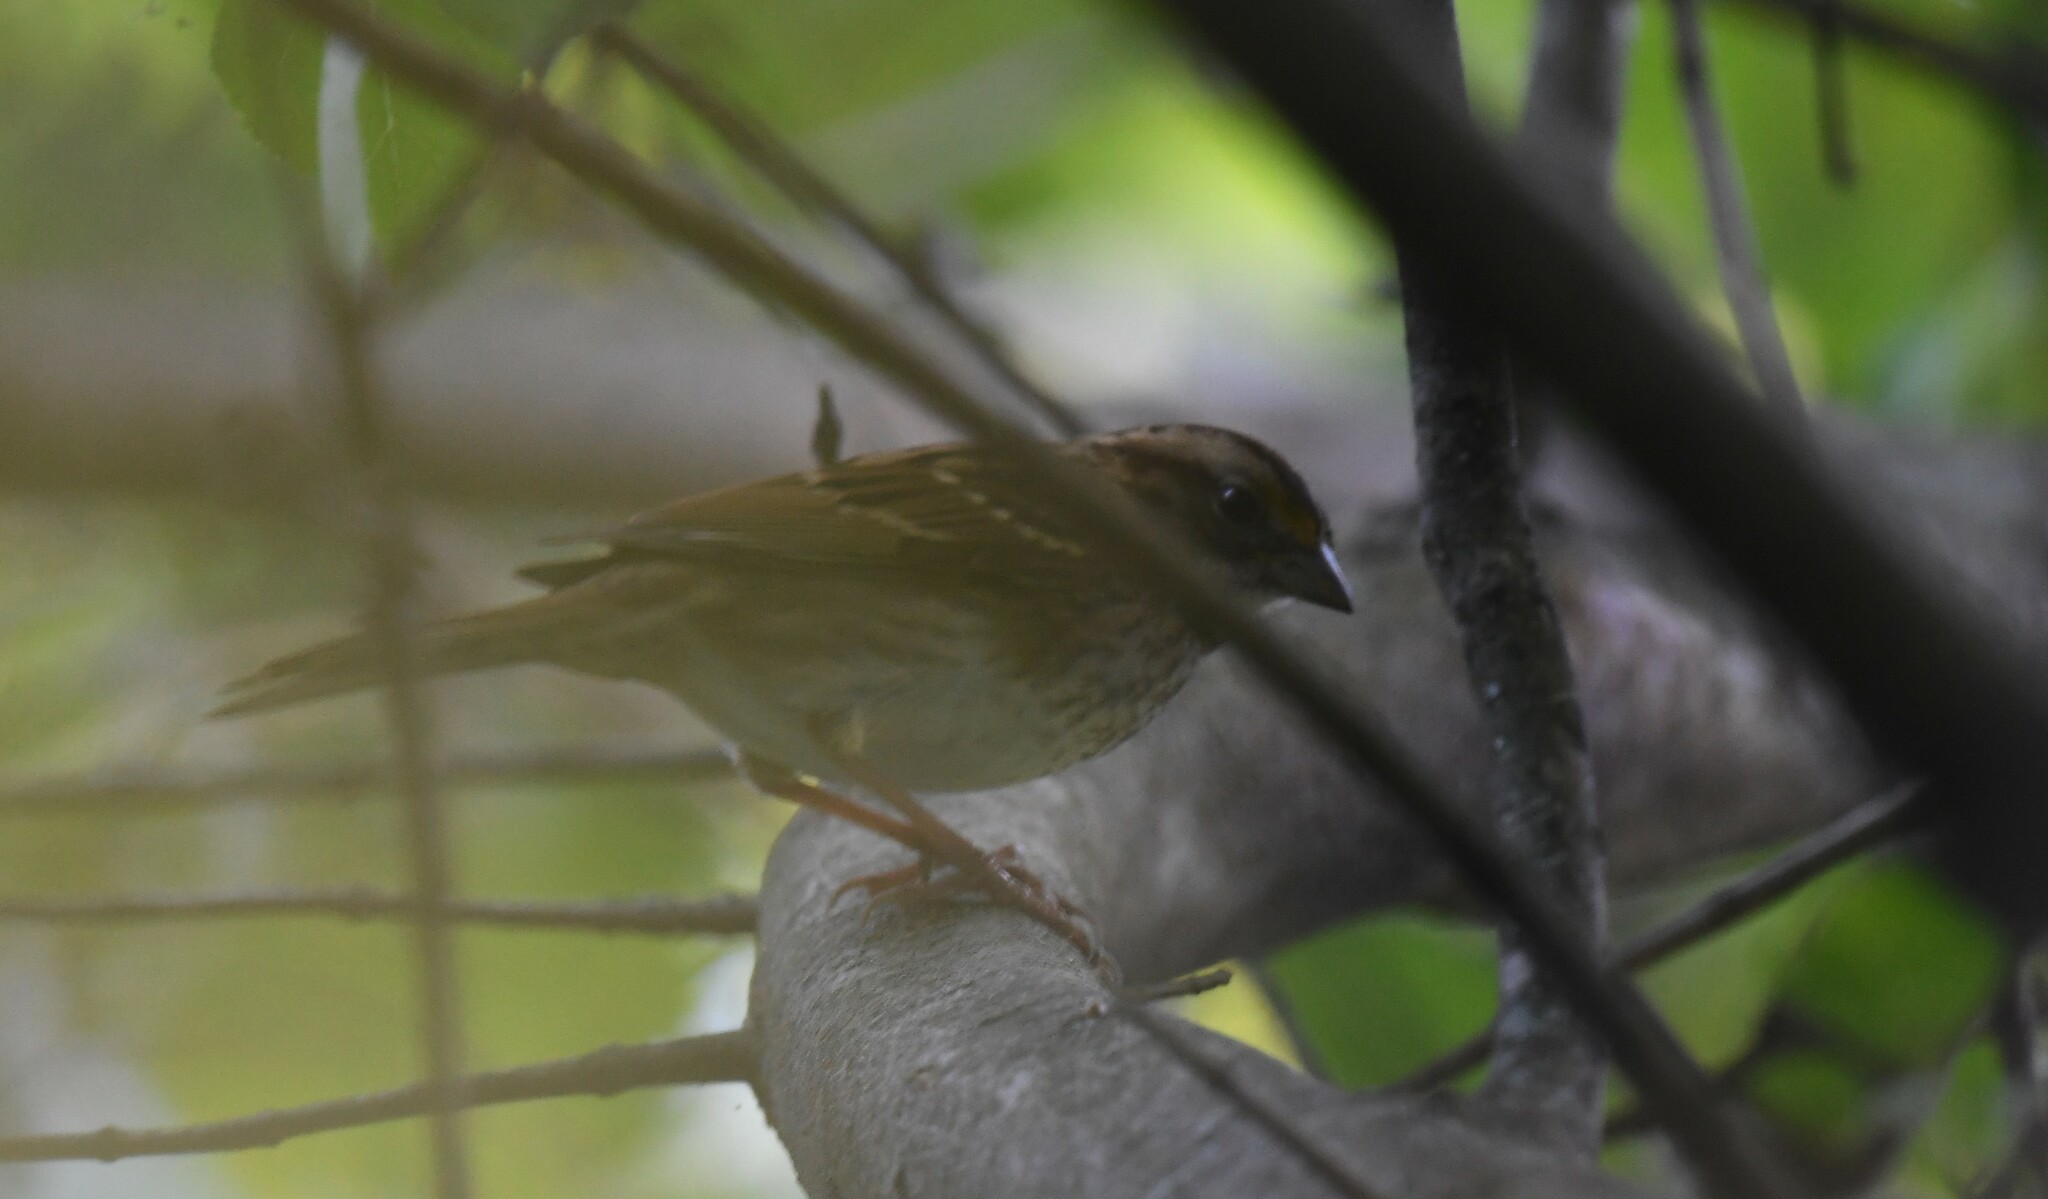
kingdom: Animalia
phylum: Chordata
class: Aves
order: Passeriformes
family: Passerellidae
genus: Zonotrichia
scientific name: Zonotrichia albicollis
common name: White-throated sparrow
